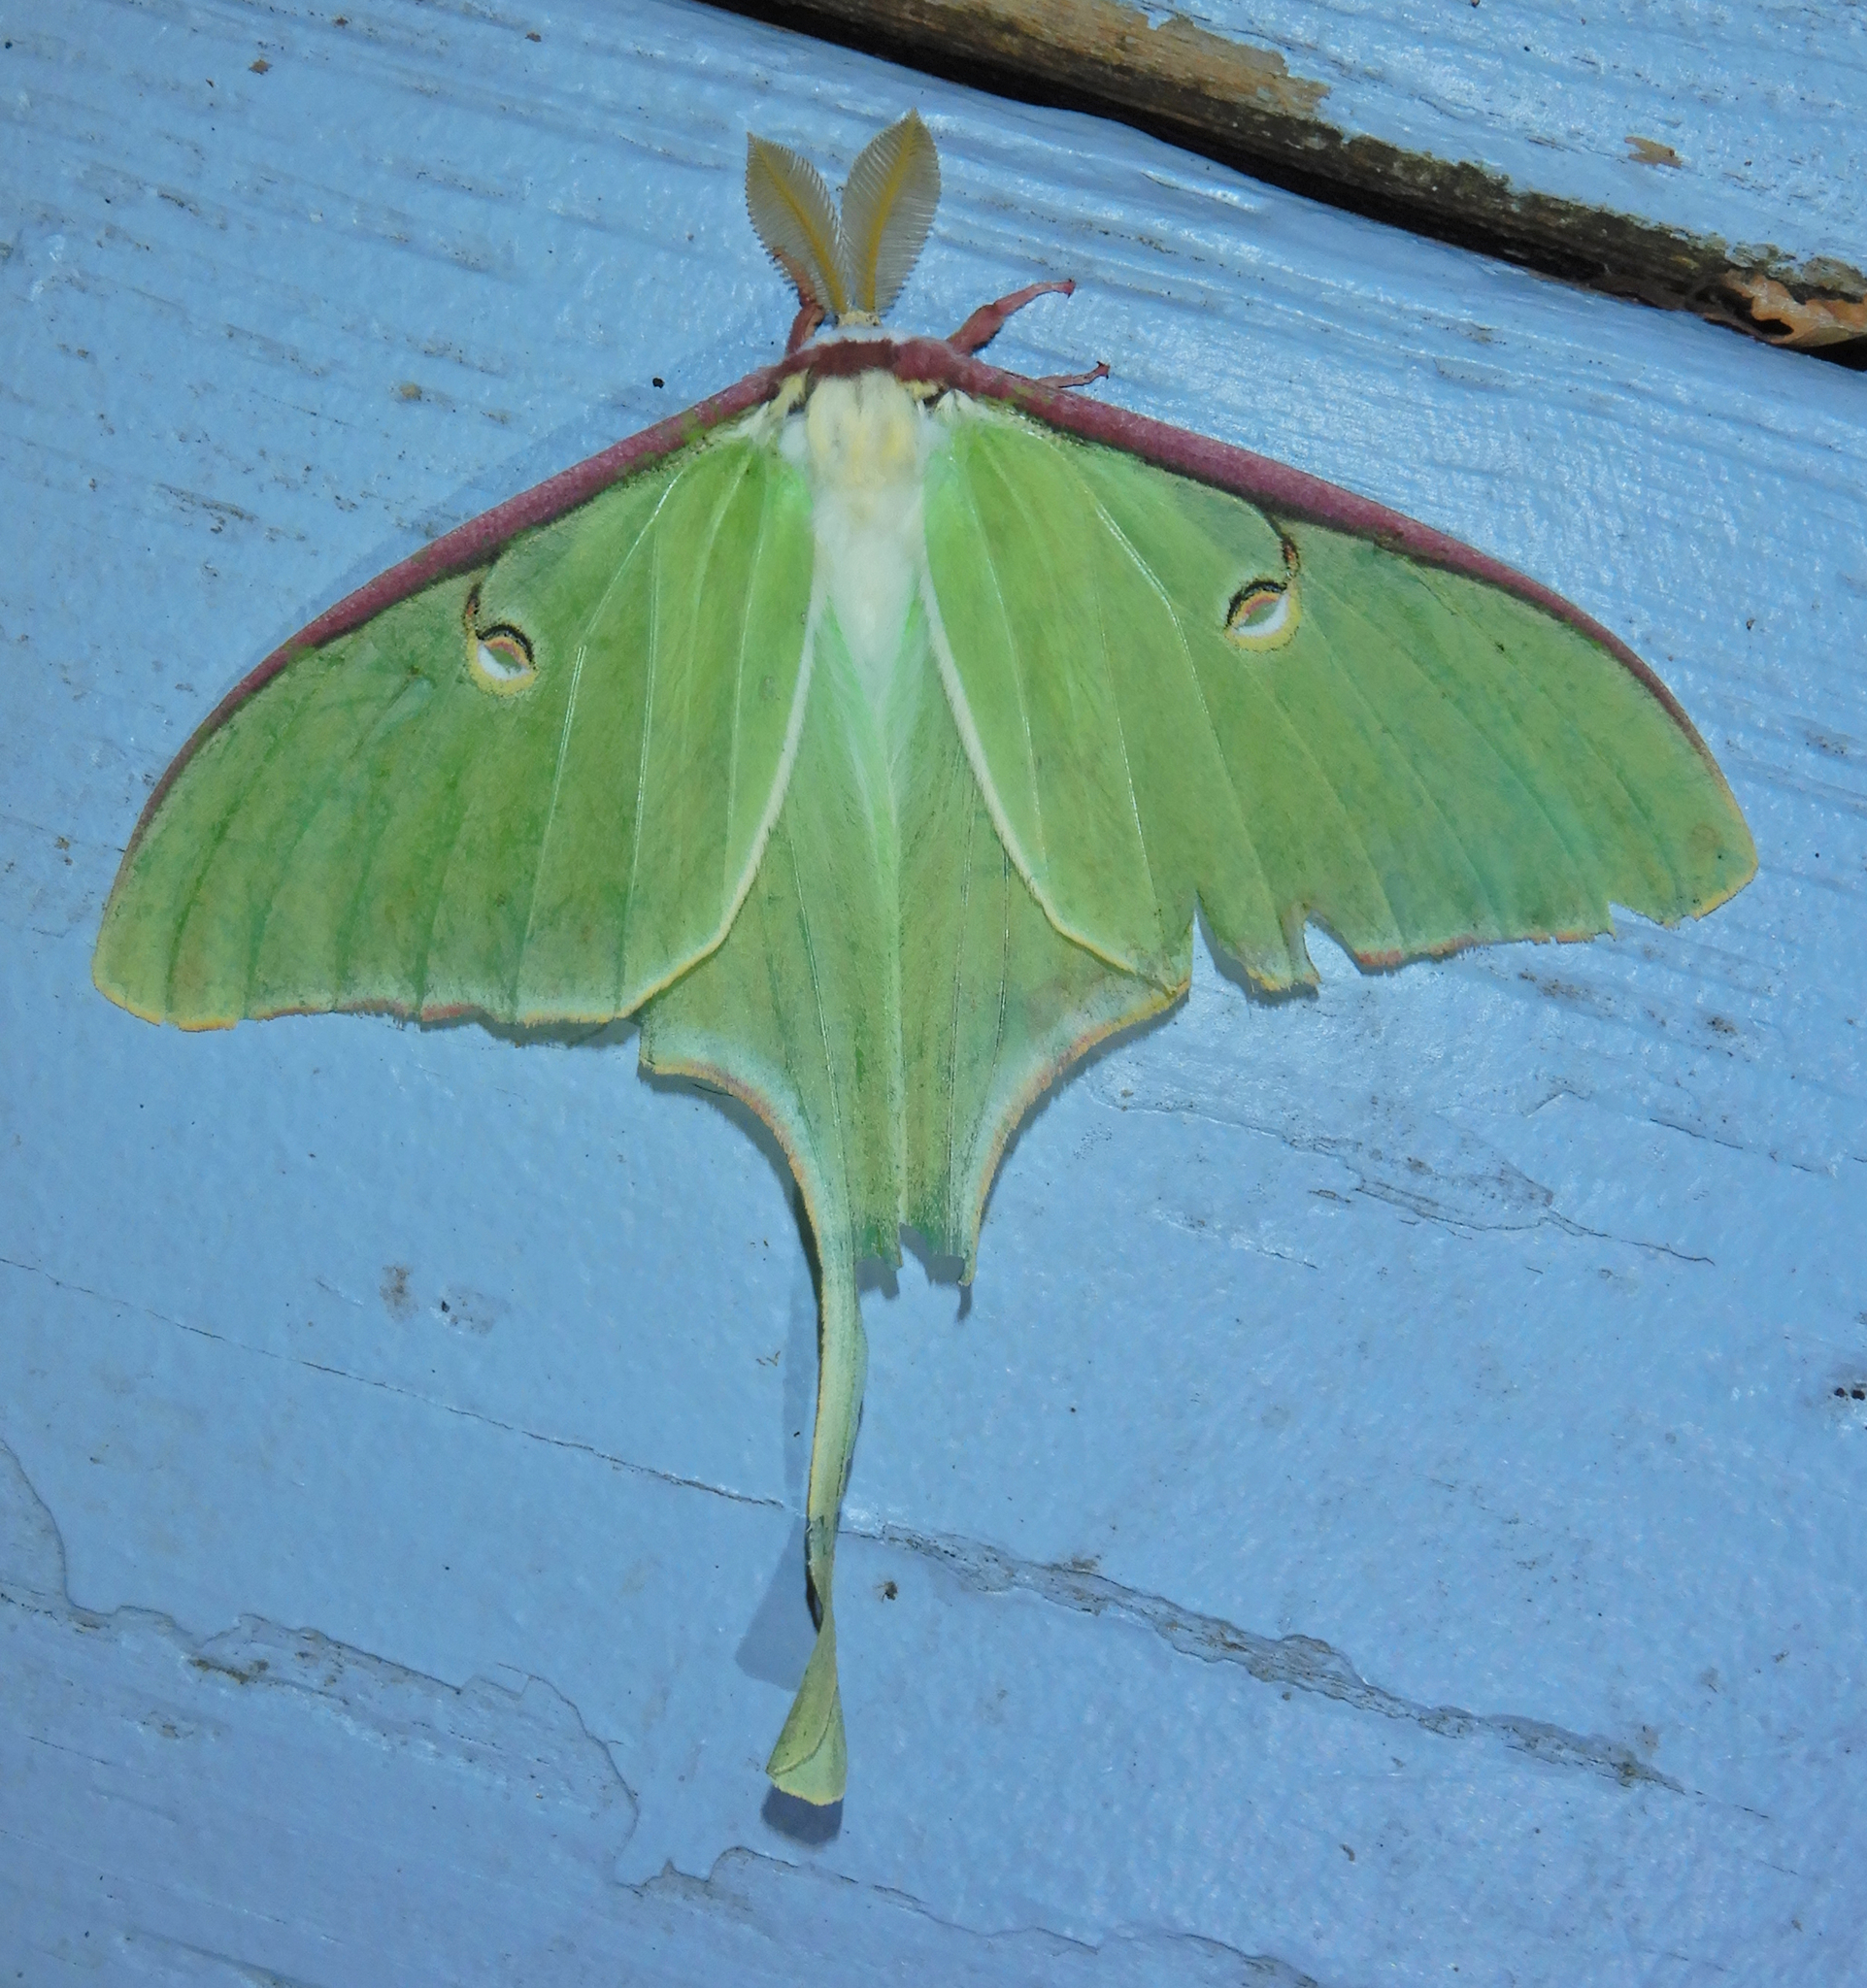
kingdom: Animalia
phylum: Arthropoda
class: Insecta
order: Lepidoptera
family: Saturniidae
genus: Actias
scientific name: Actias luna
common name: Luna moth
